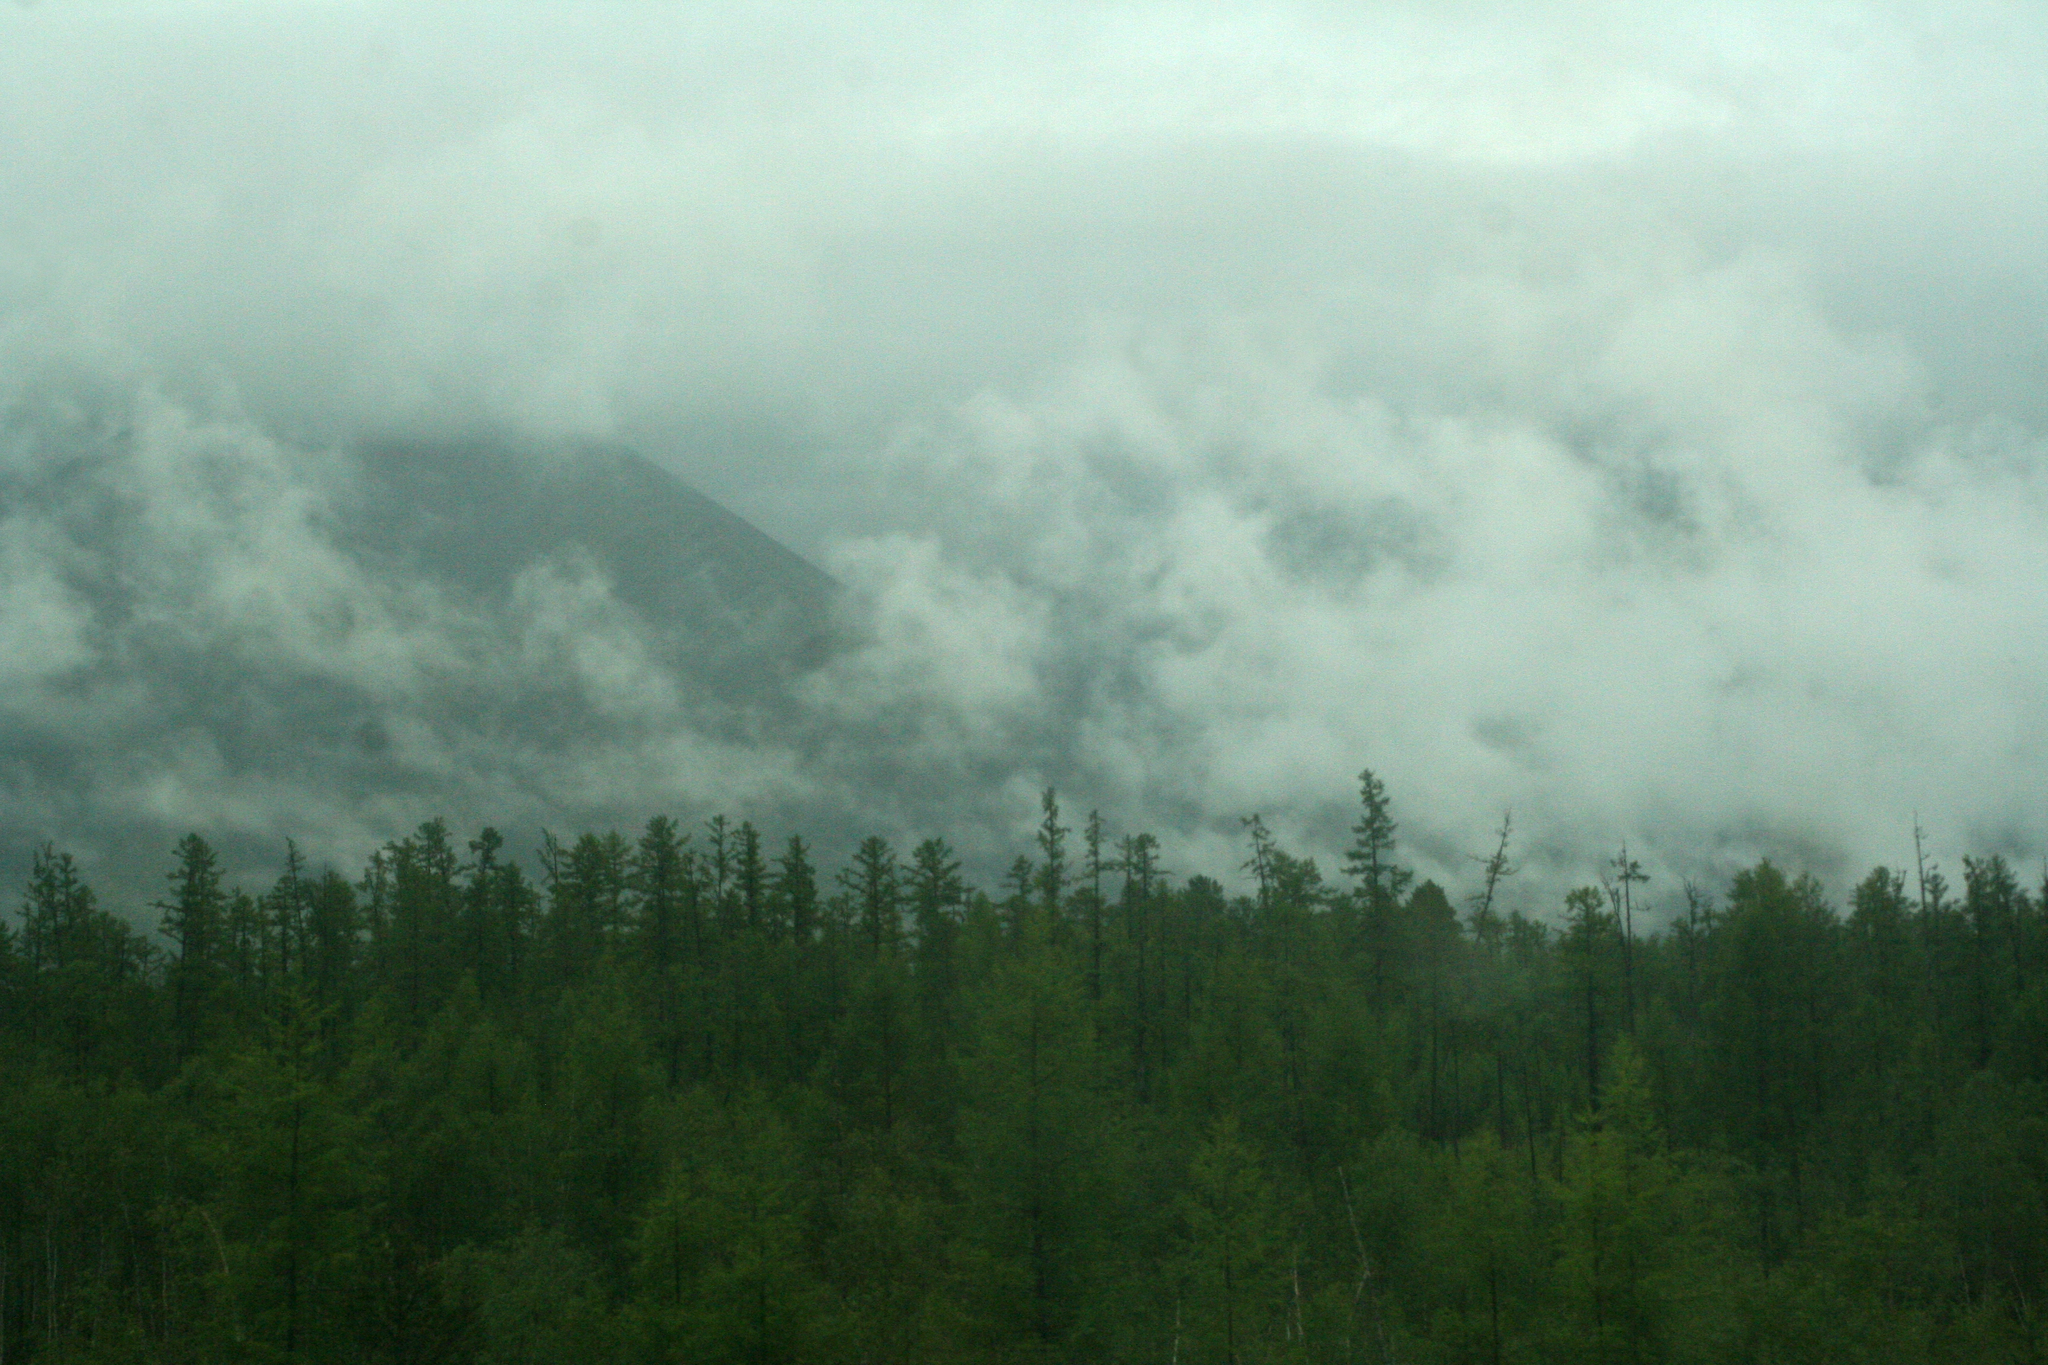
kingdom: Plantae
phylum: Tracheophyta
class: Pinopsida
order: Pinales
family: Pinaceae
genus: Larix
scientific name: Larix gmelinii
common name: Dahurian larch
